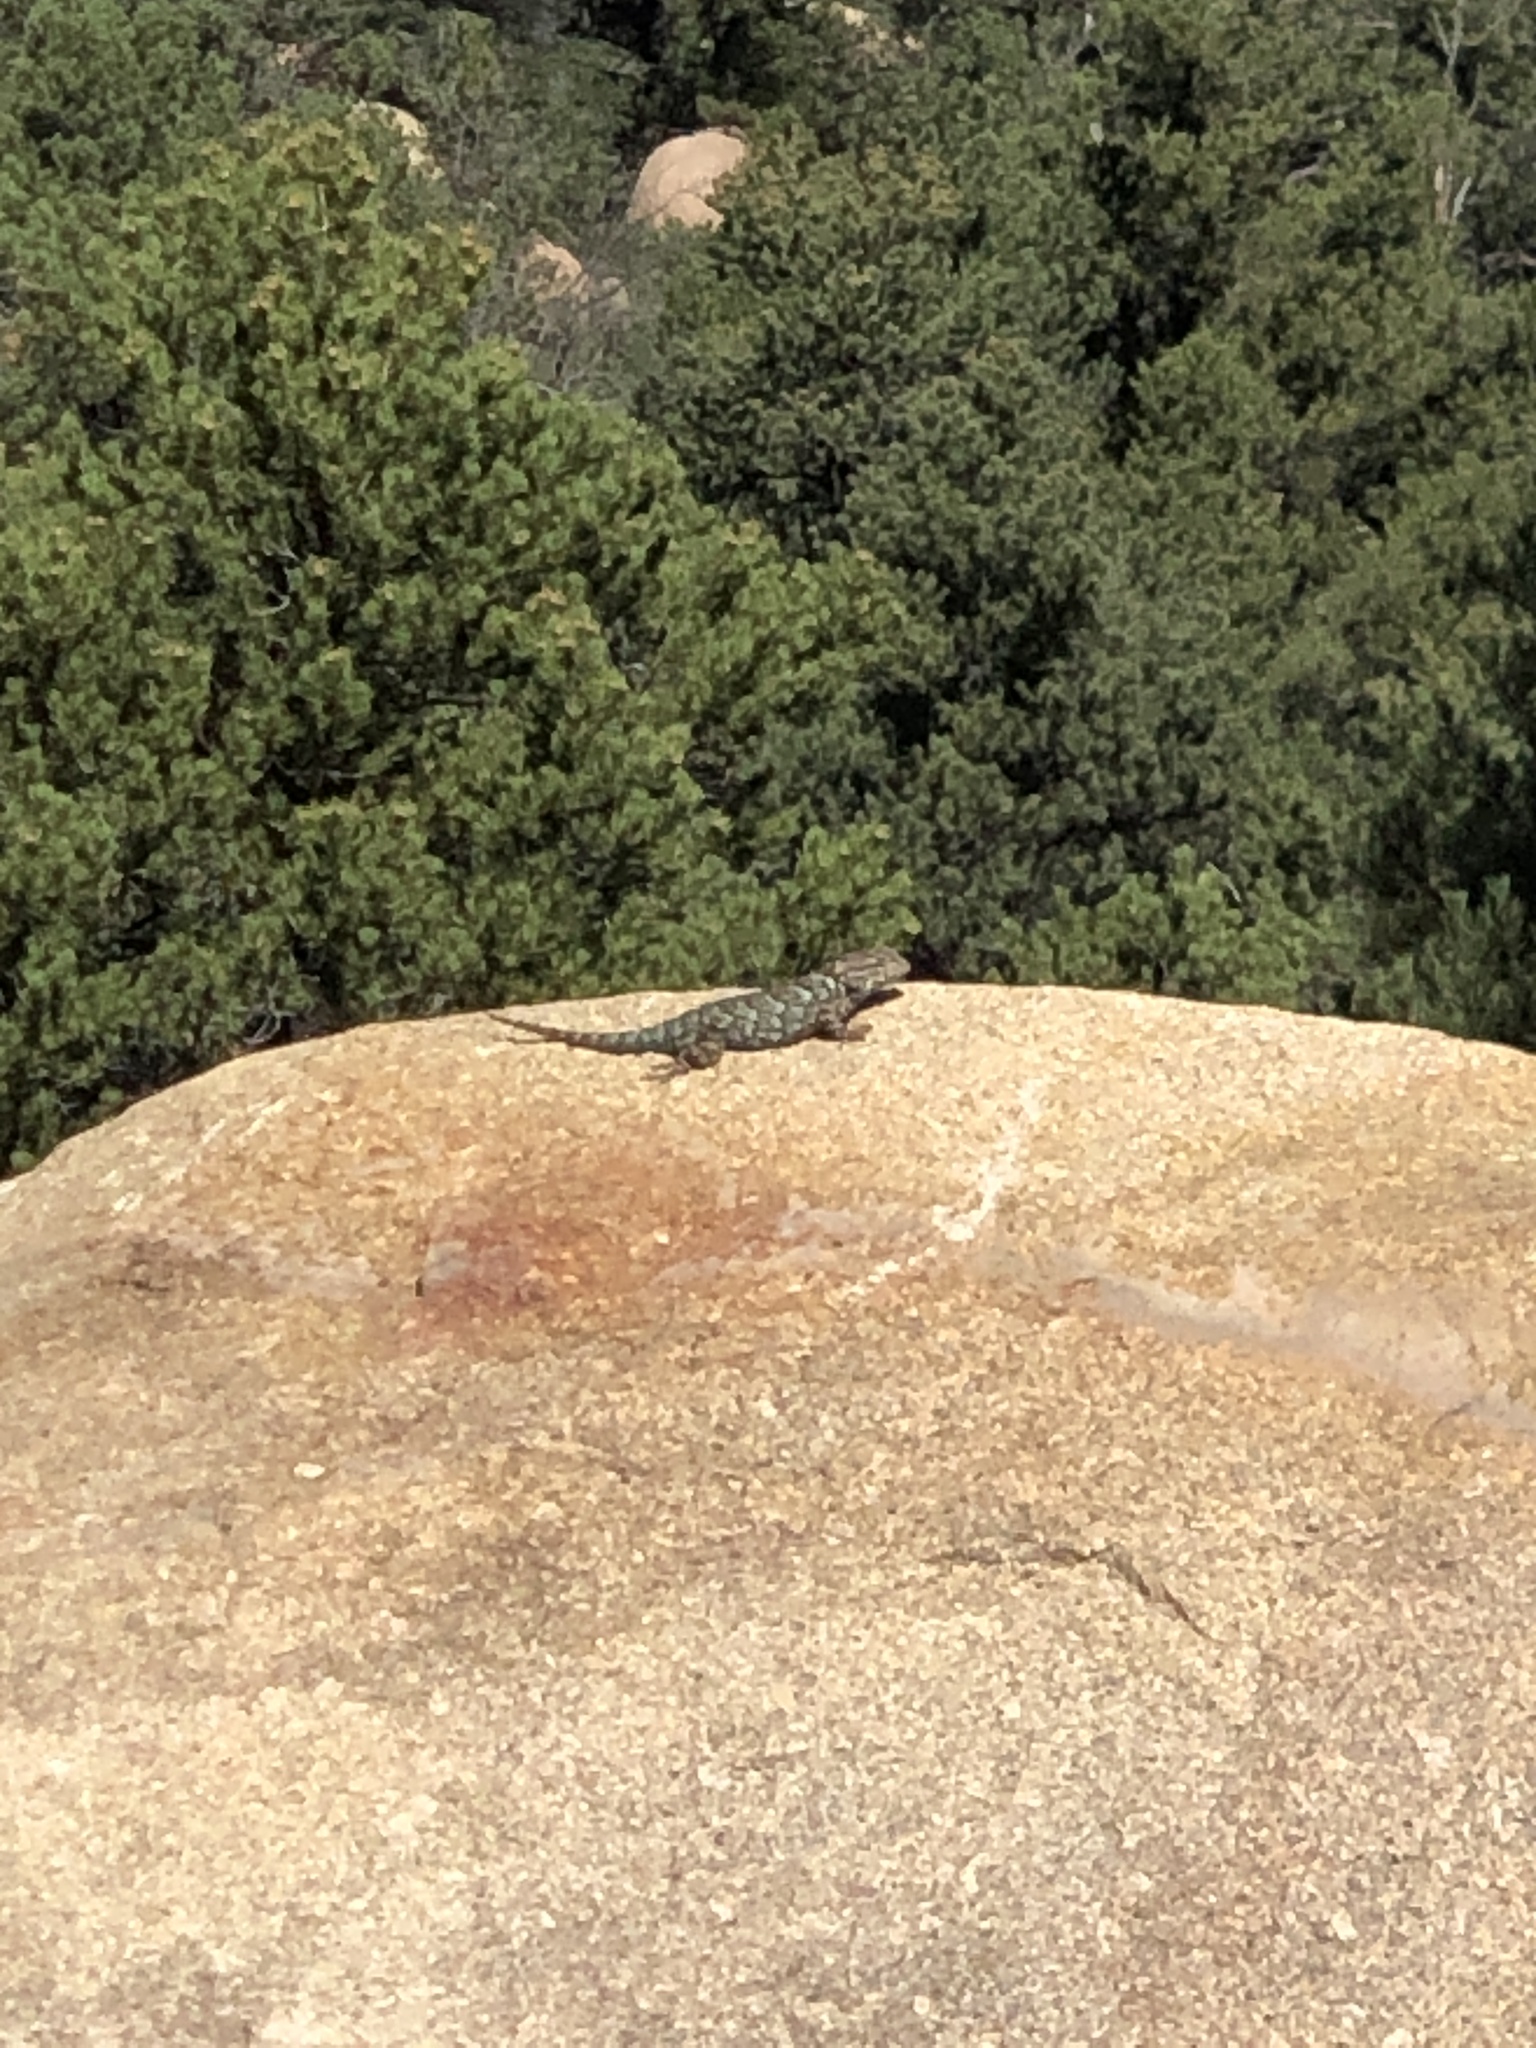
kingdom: Animalia
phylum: Chordata
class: Squamata
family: Phrynosomatidae
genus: Sceloporus
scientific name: Sceloporus clarkii
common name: Clark's spiny lizard
